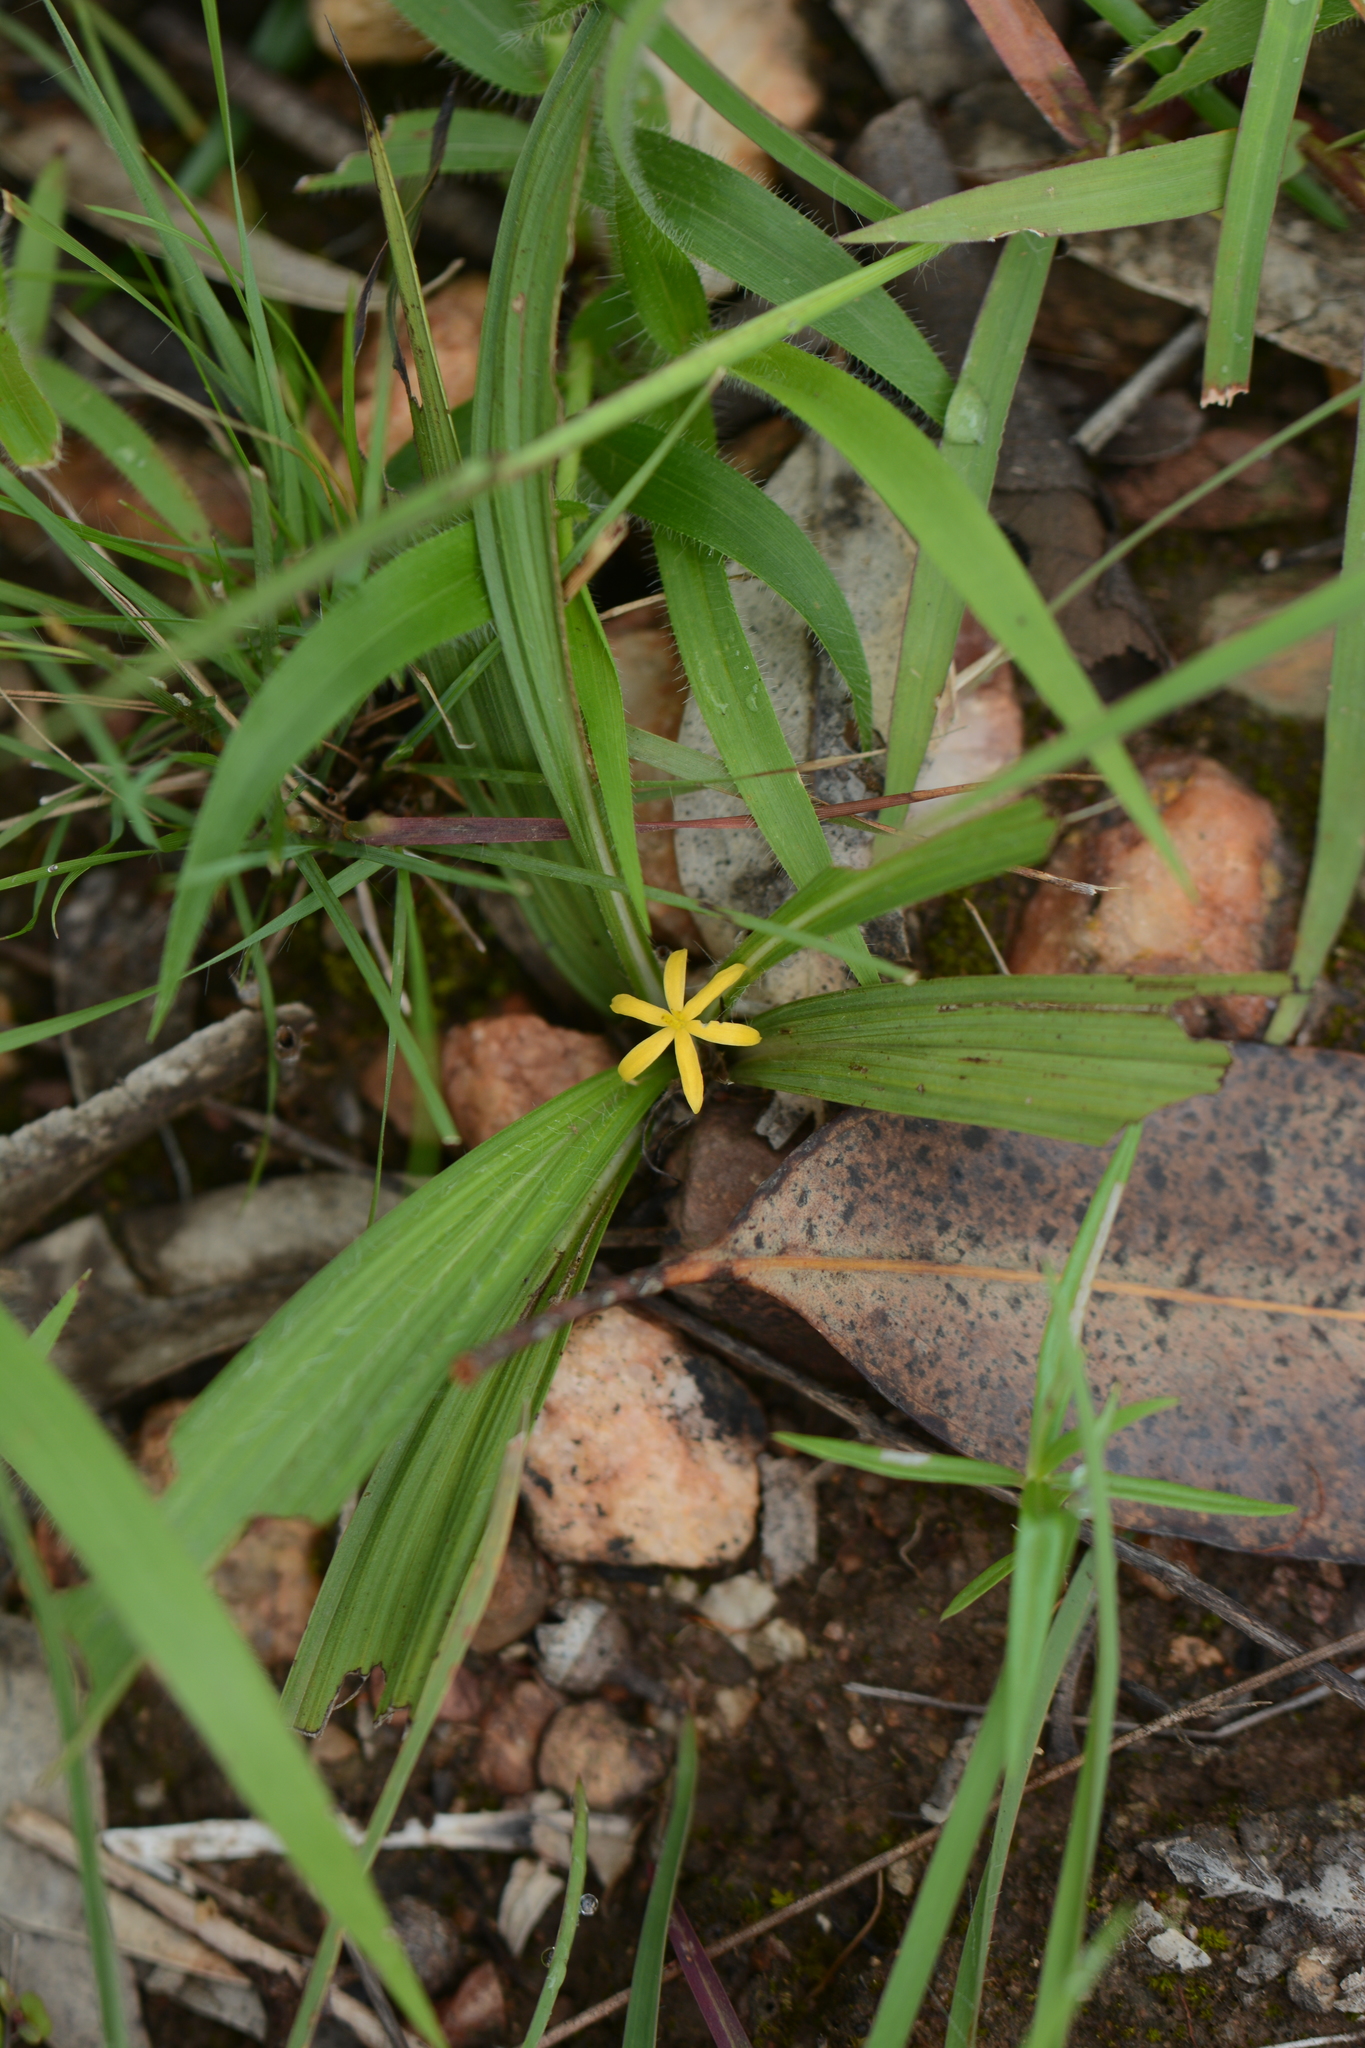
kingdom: Plantae
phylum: Tracheophyta
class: Liliopsida
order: Asparagales
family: Hypoxidaceae
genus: Curculigo
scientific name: Curculigo orchioides
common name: Golden eye-grass
